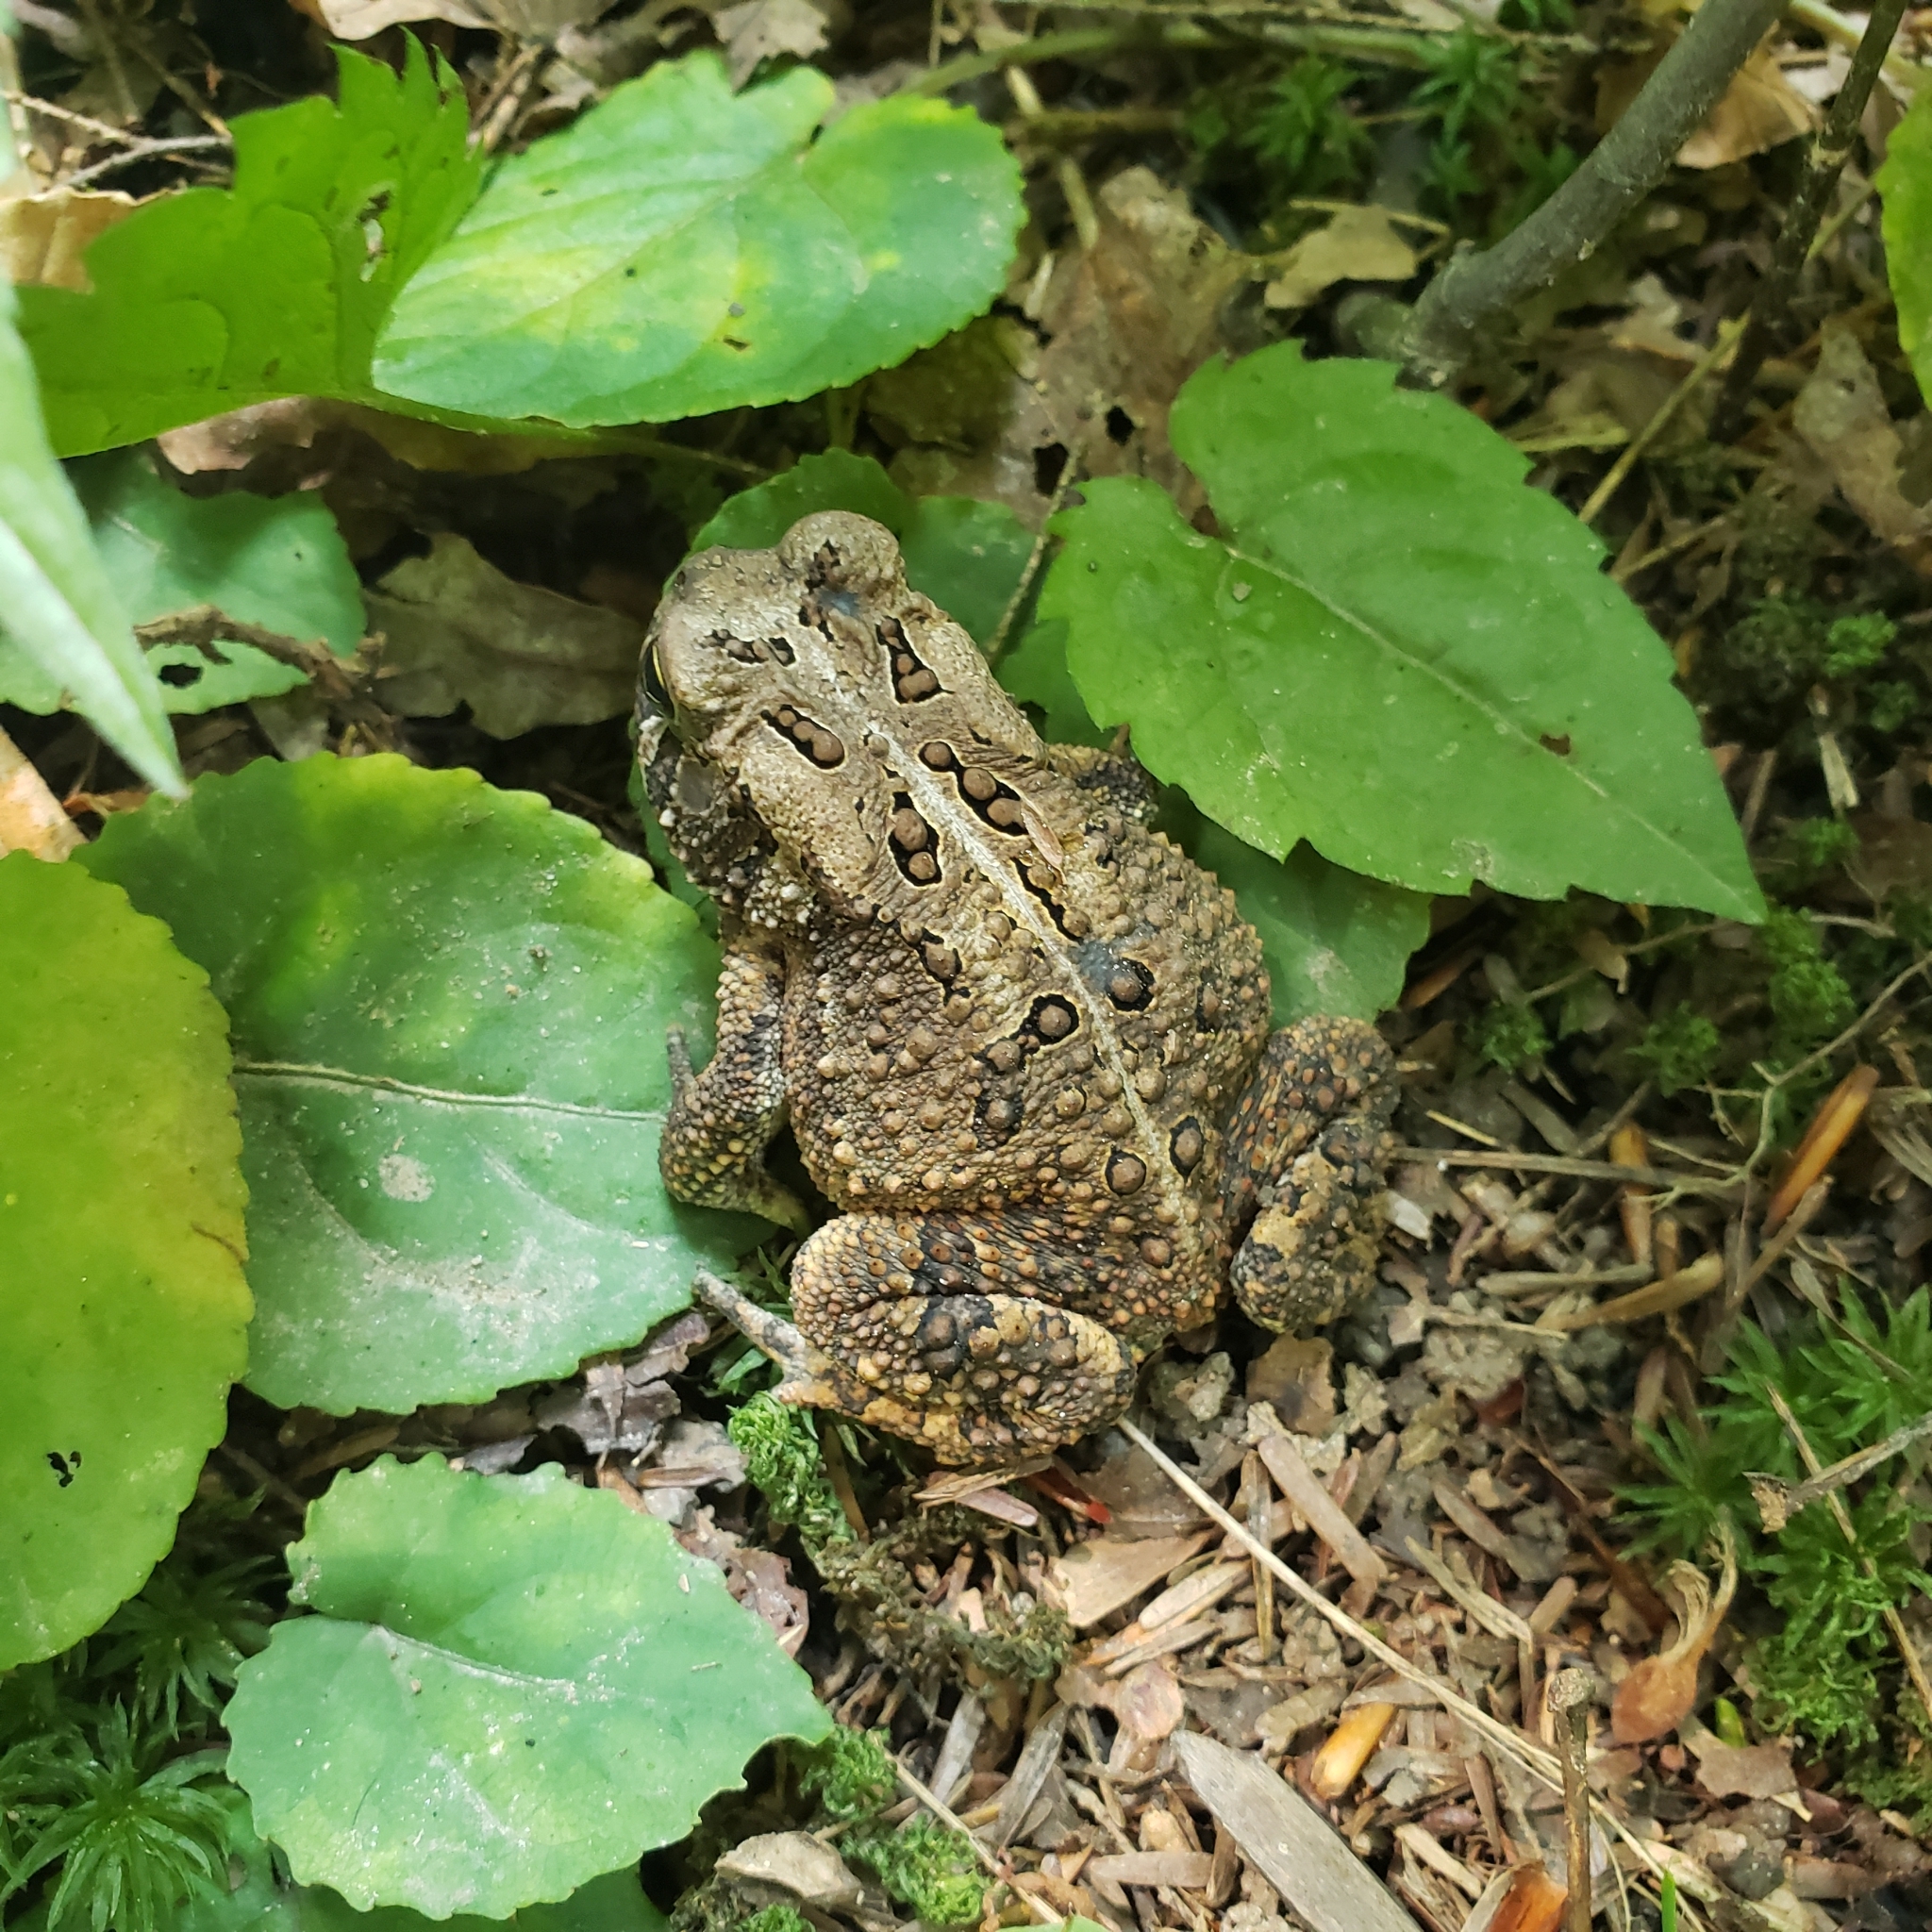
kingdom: Animalia
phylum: Chordata
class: Amphibia
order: Anura
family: Bufonidae
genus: Anaxyrus
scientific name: Anaxyrus americanus
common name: American toad
